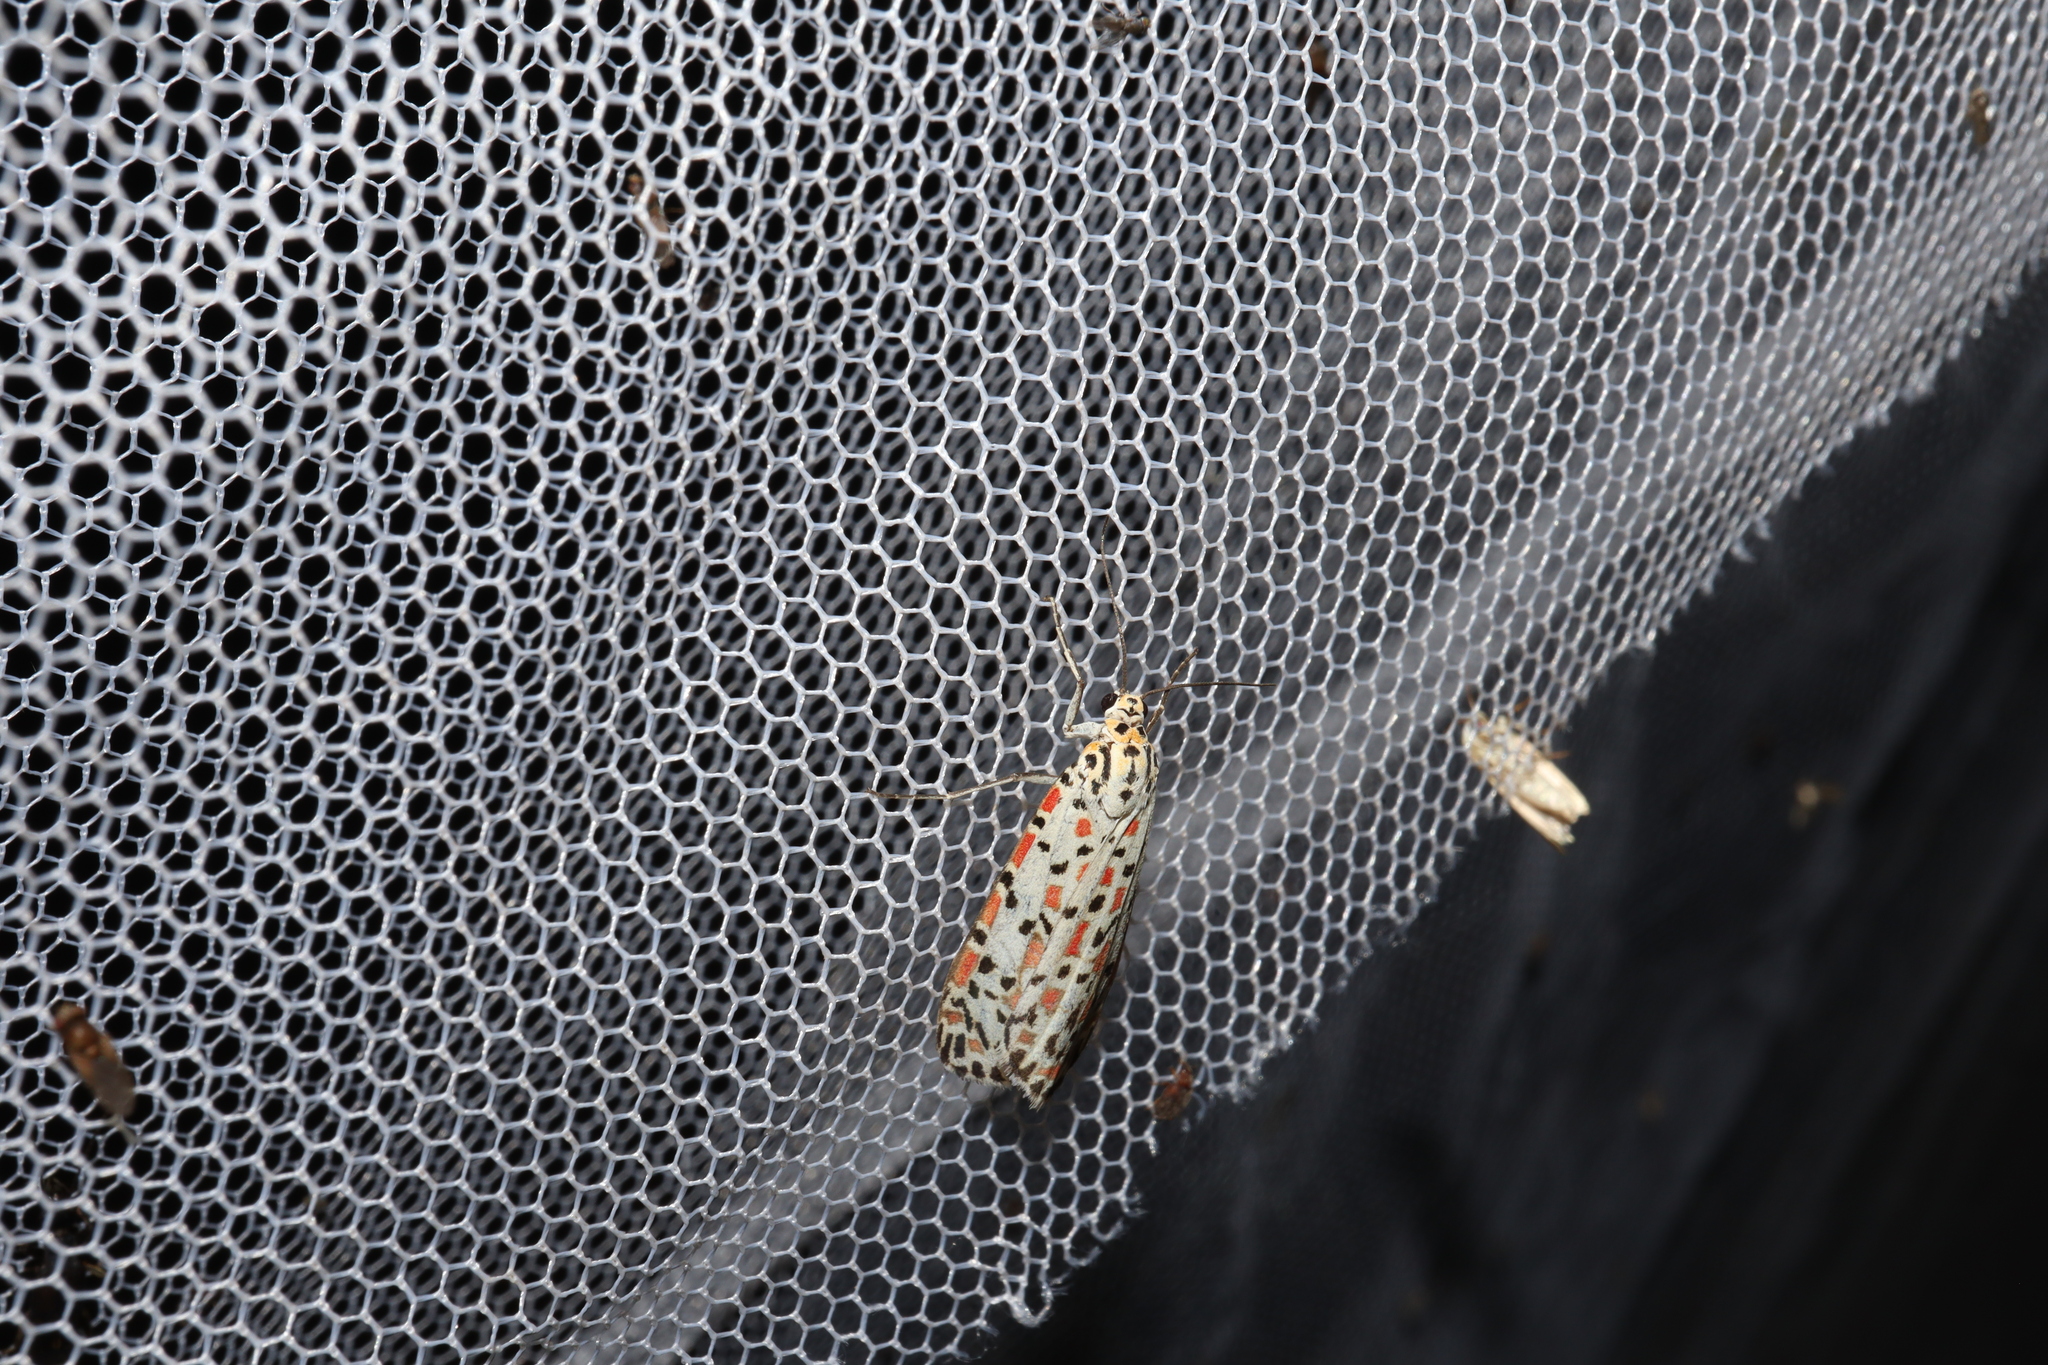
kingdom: Animalia
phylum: Arthropoda
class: Insecta
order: Lepidoptera
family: Erebidae
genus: Utetheisa
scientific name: Utetheisa pulchelloides
